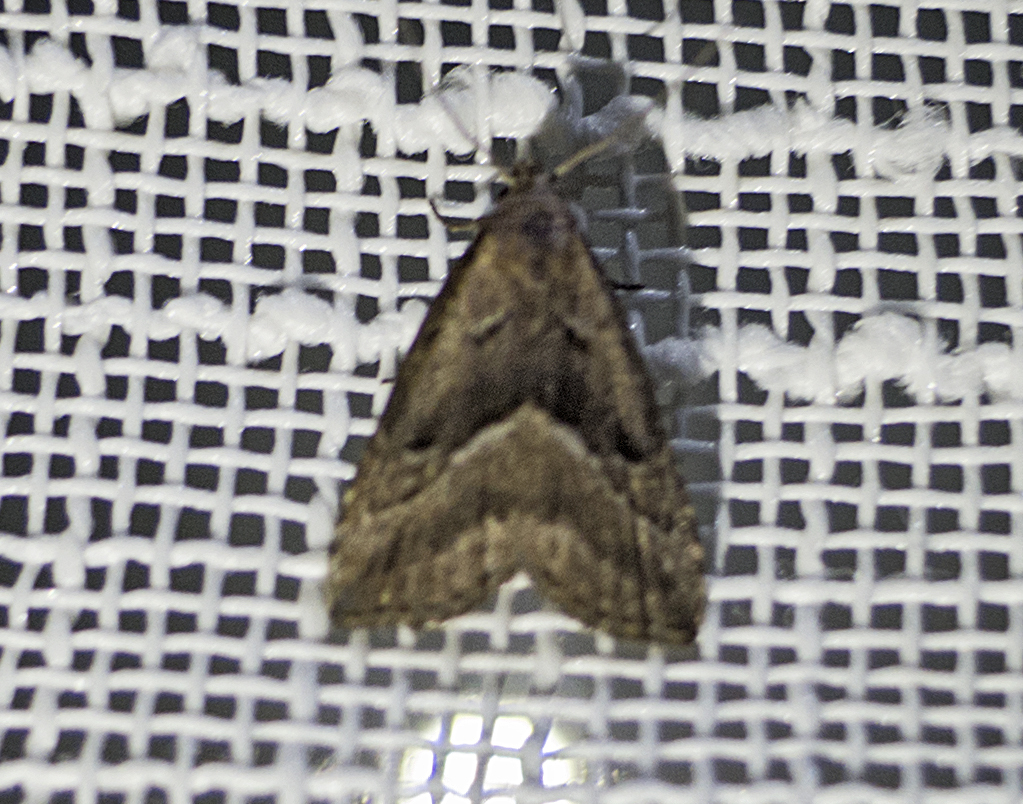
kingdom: Animalia
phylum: Arthropoda
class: Insecta
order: Lepidoptera
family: Erebidae
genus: Schrankia
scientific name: Schrankia taenialis
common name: White-line snout
